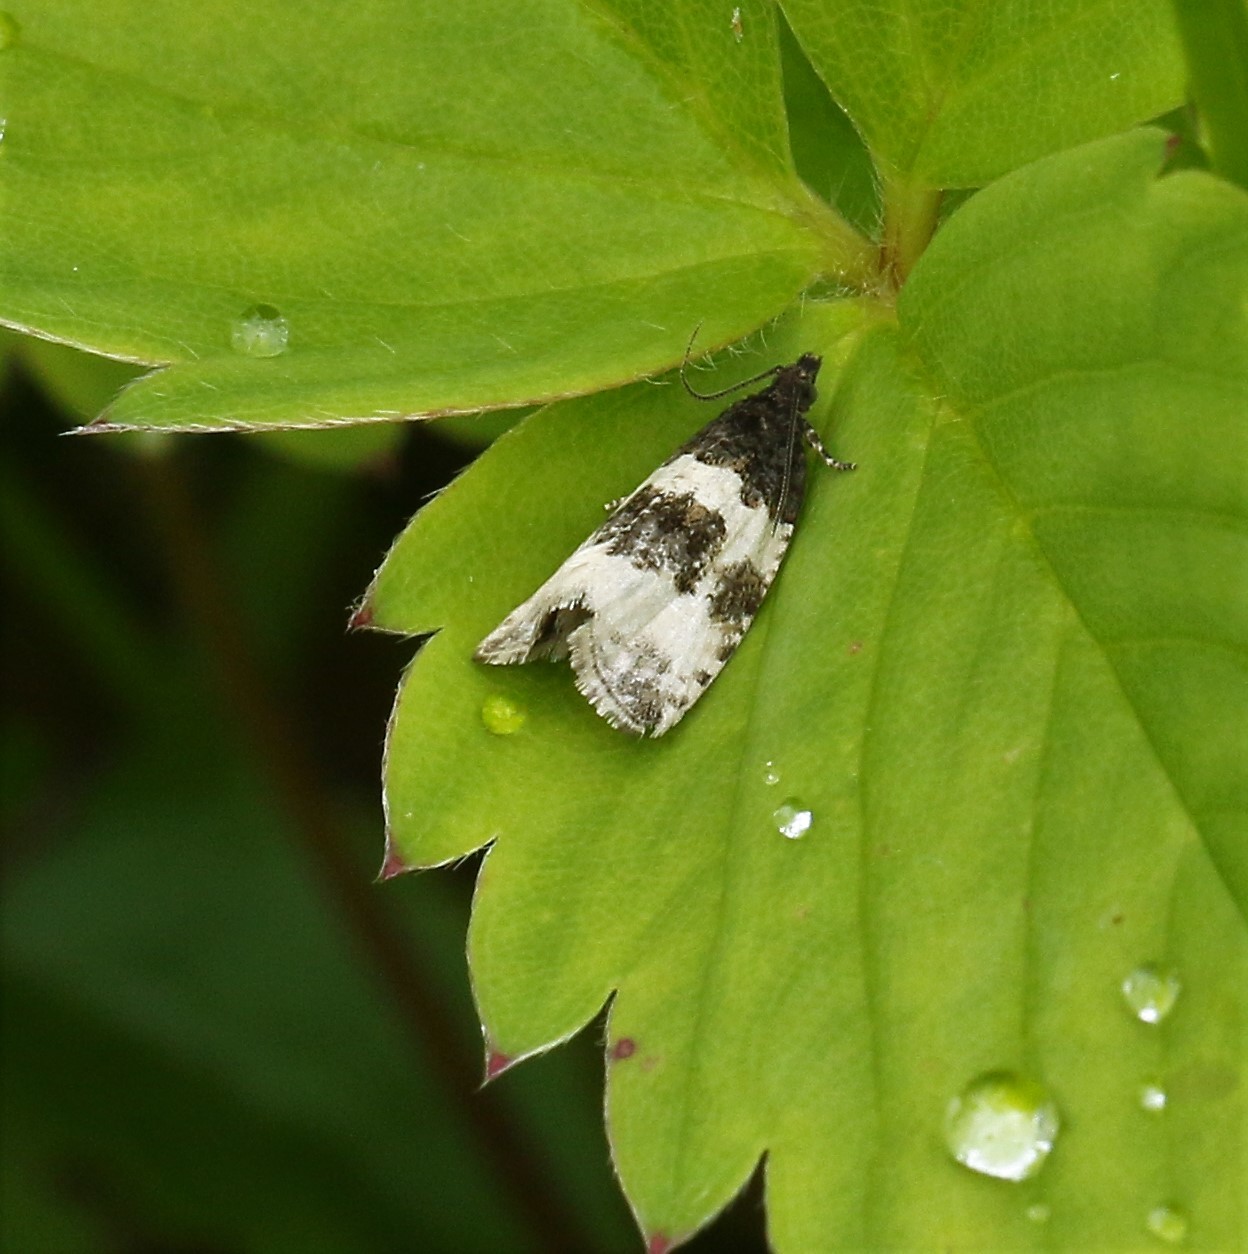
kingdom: Animalia
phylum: Arthropoda
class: Insecta
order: Lepidoptera
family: Tortricidae
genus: Olethreutes
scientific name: Olethreutes bipartitana
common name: Divided olethreutes moth
